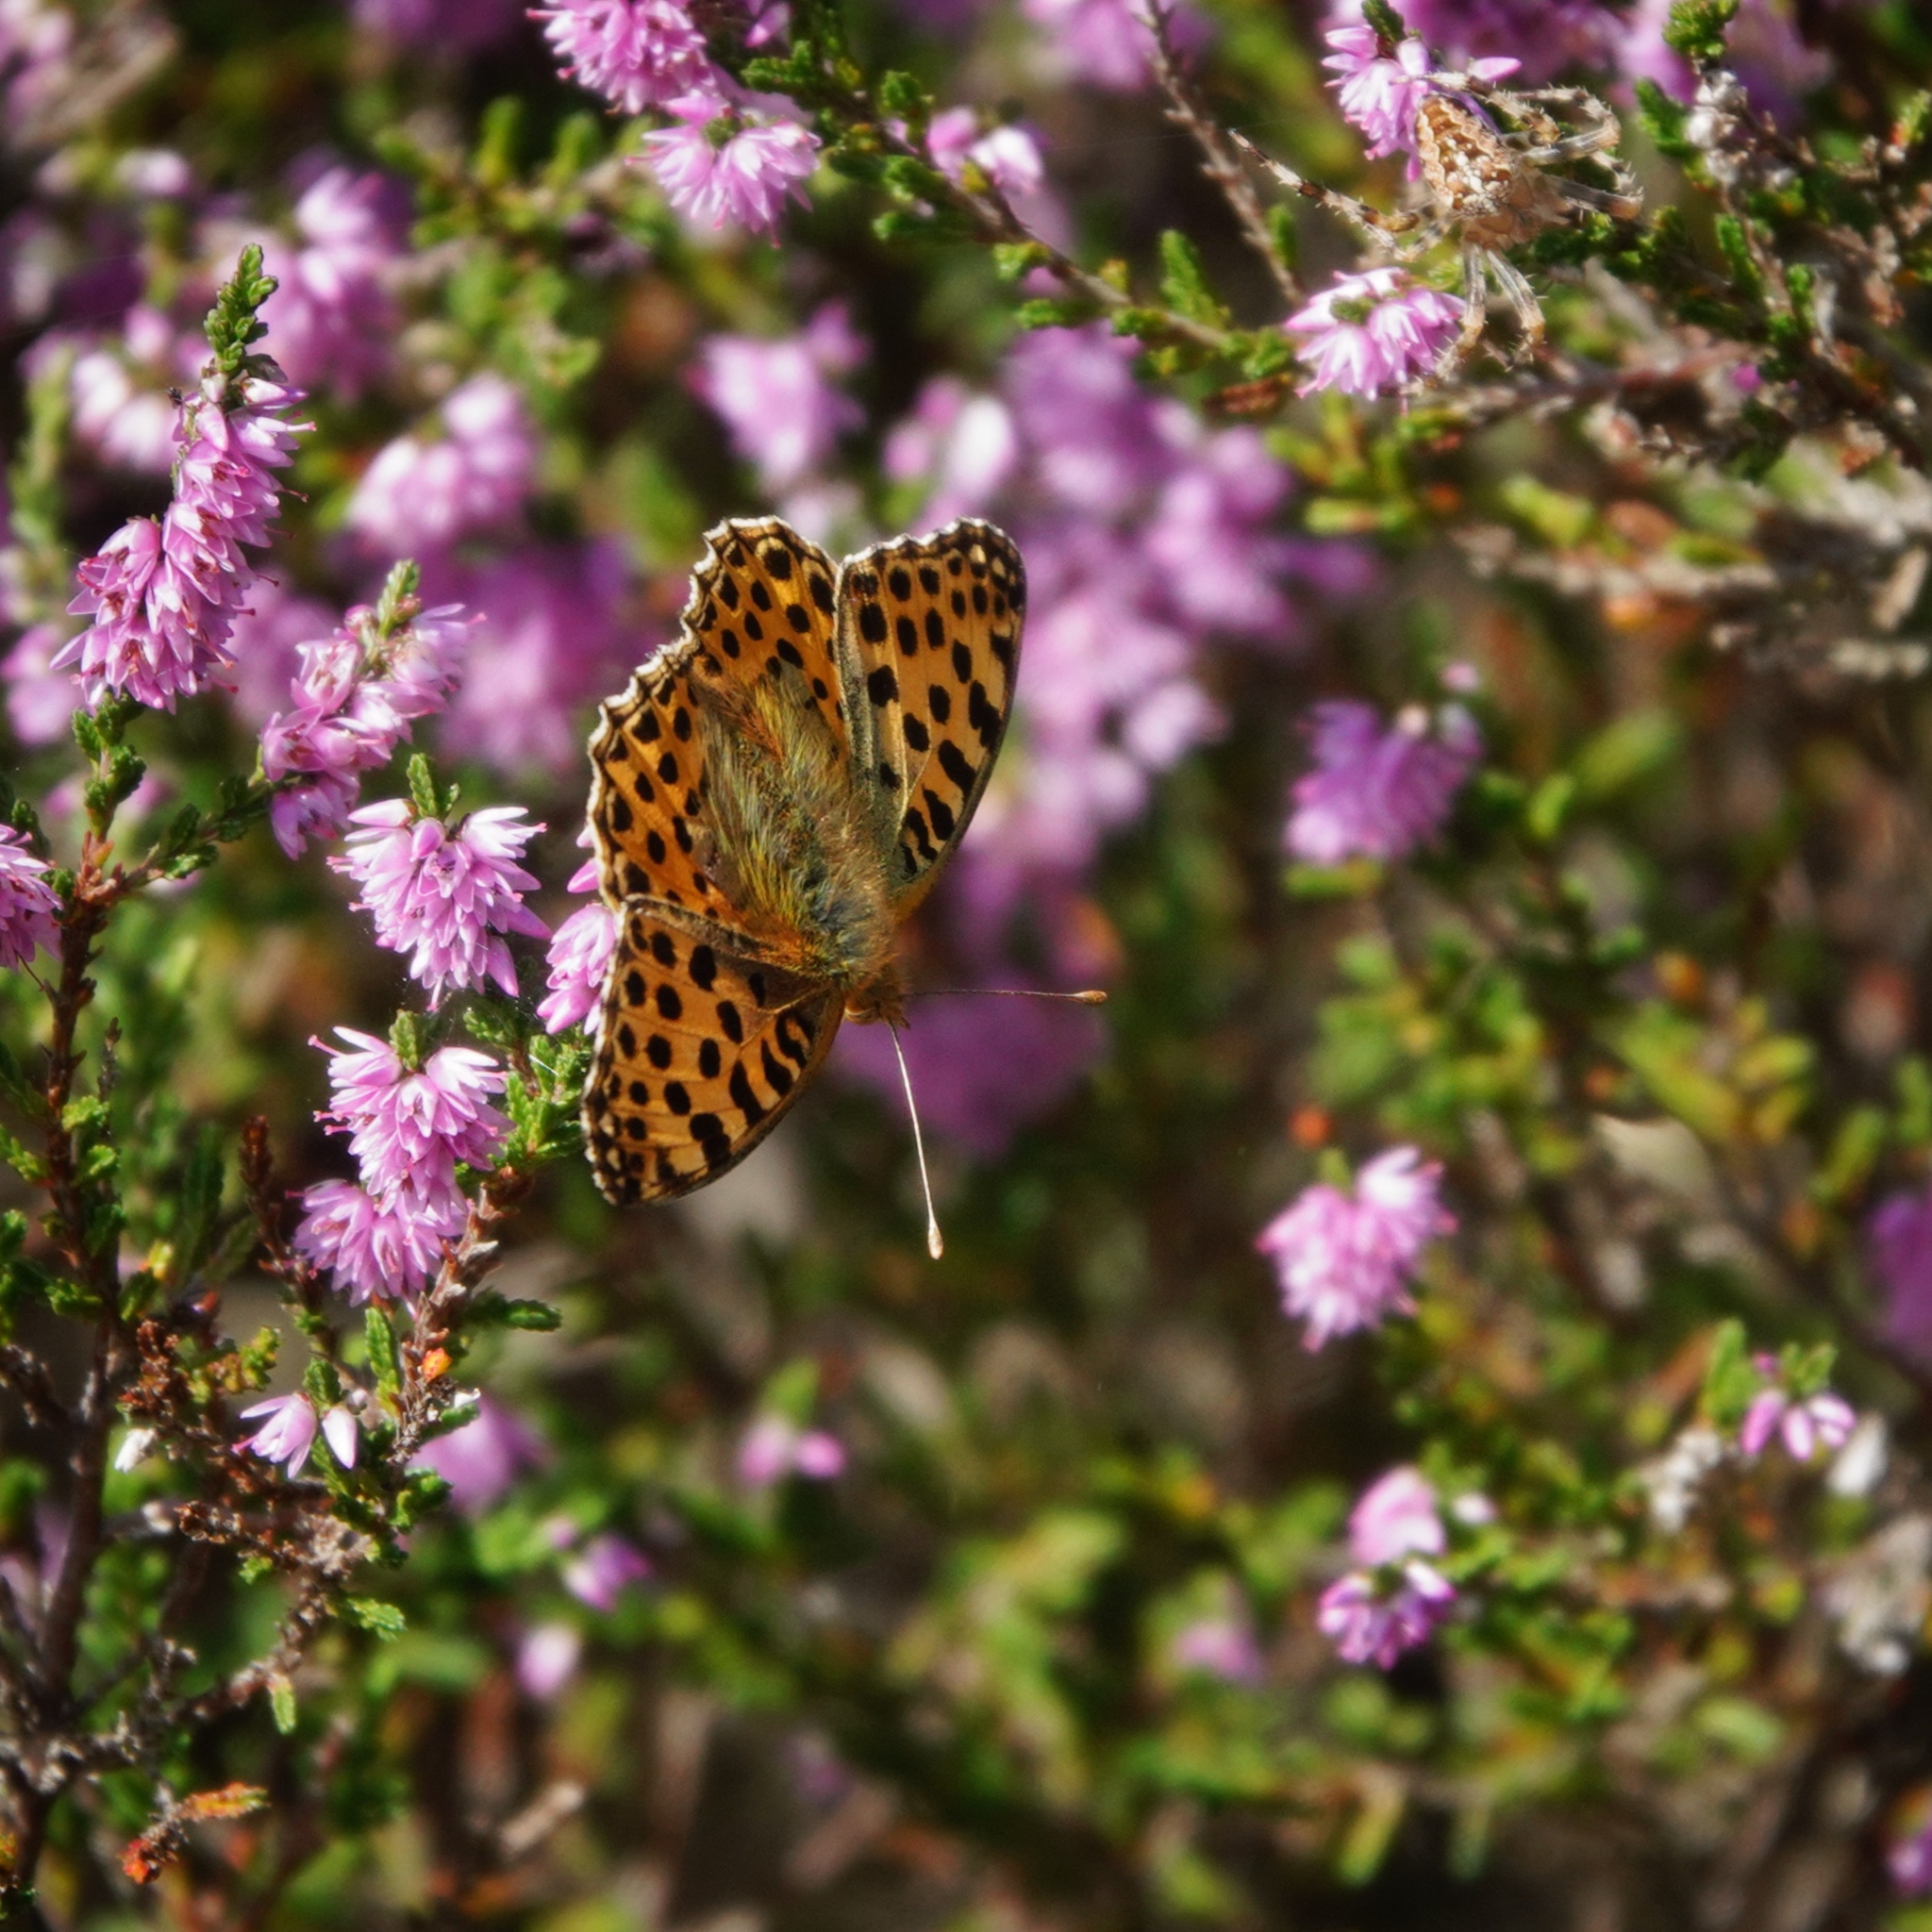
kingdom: Animalia
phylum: Arthropoda
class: Insecta
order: Lepidoptera
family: Nymphalidae
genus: Issoria
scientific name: Issoria lathonia
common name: Queen of spain fritillary
